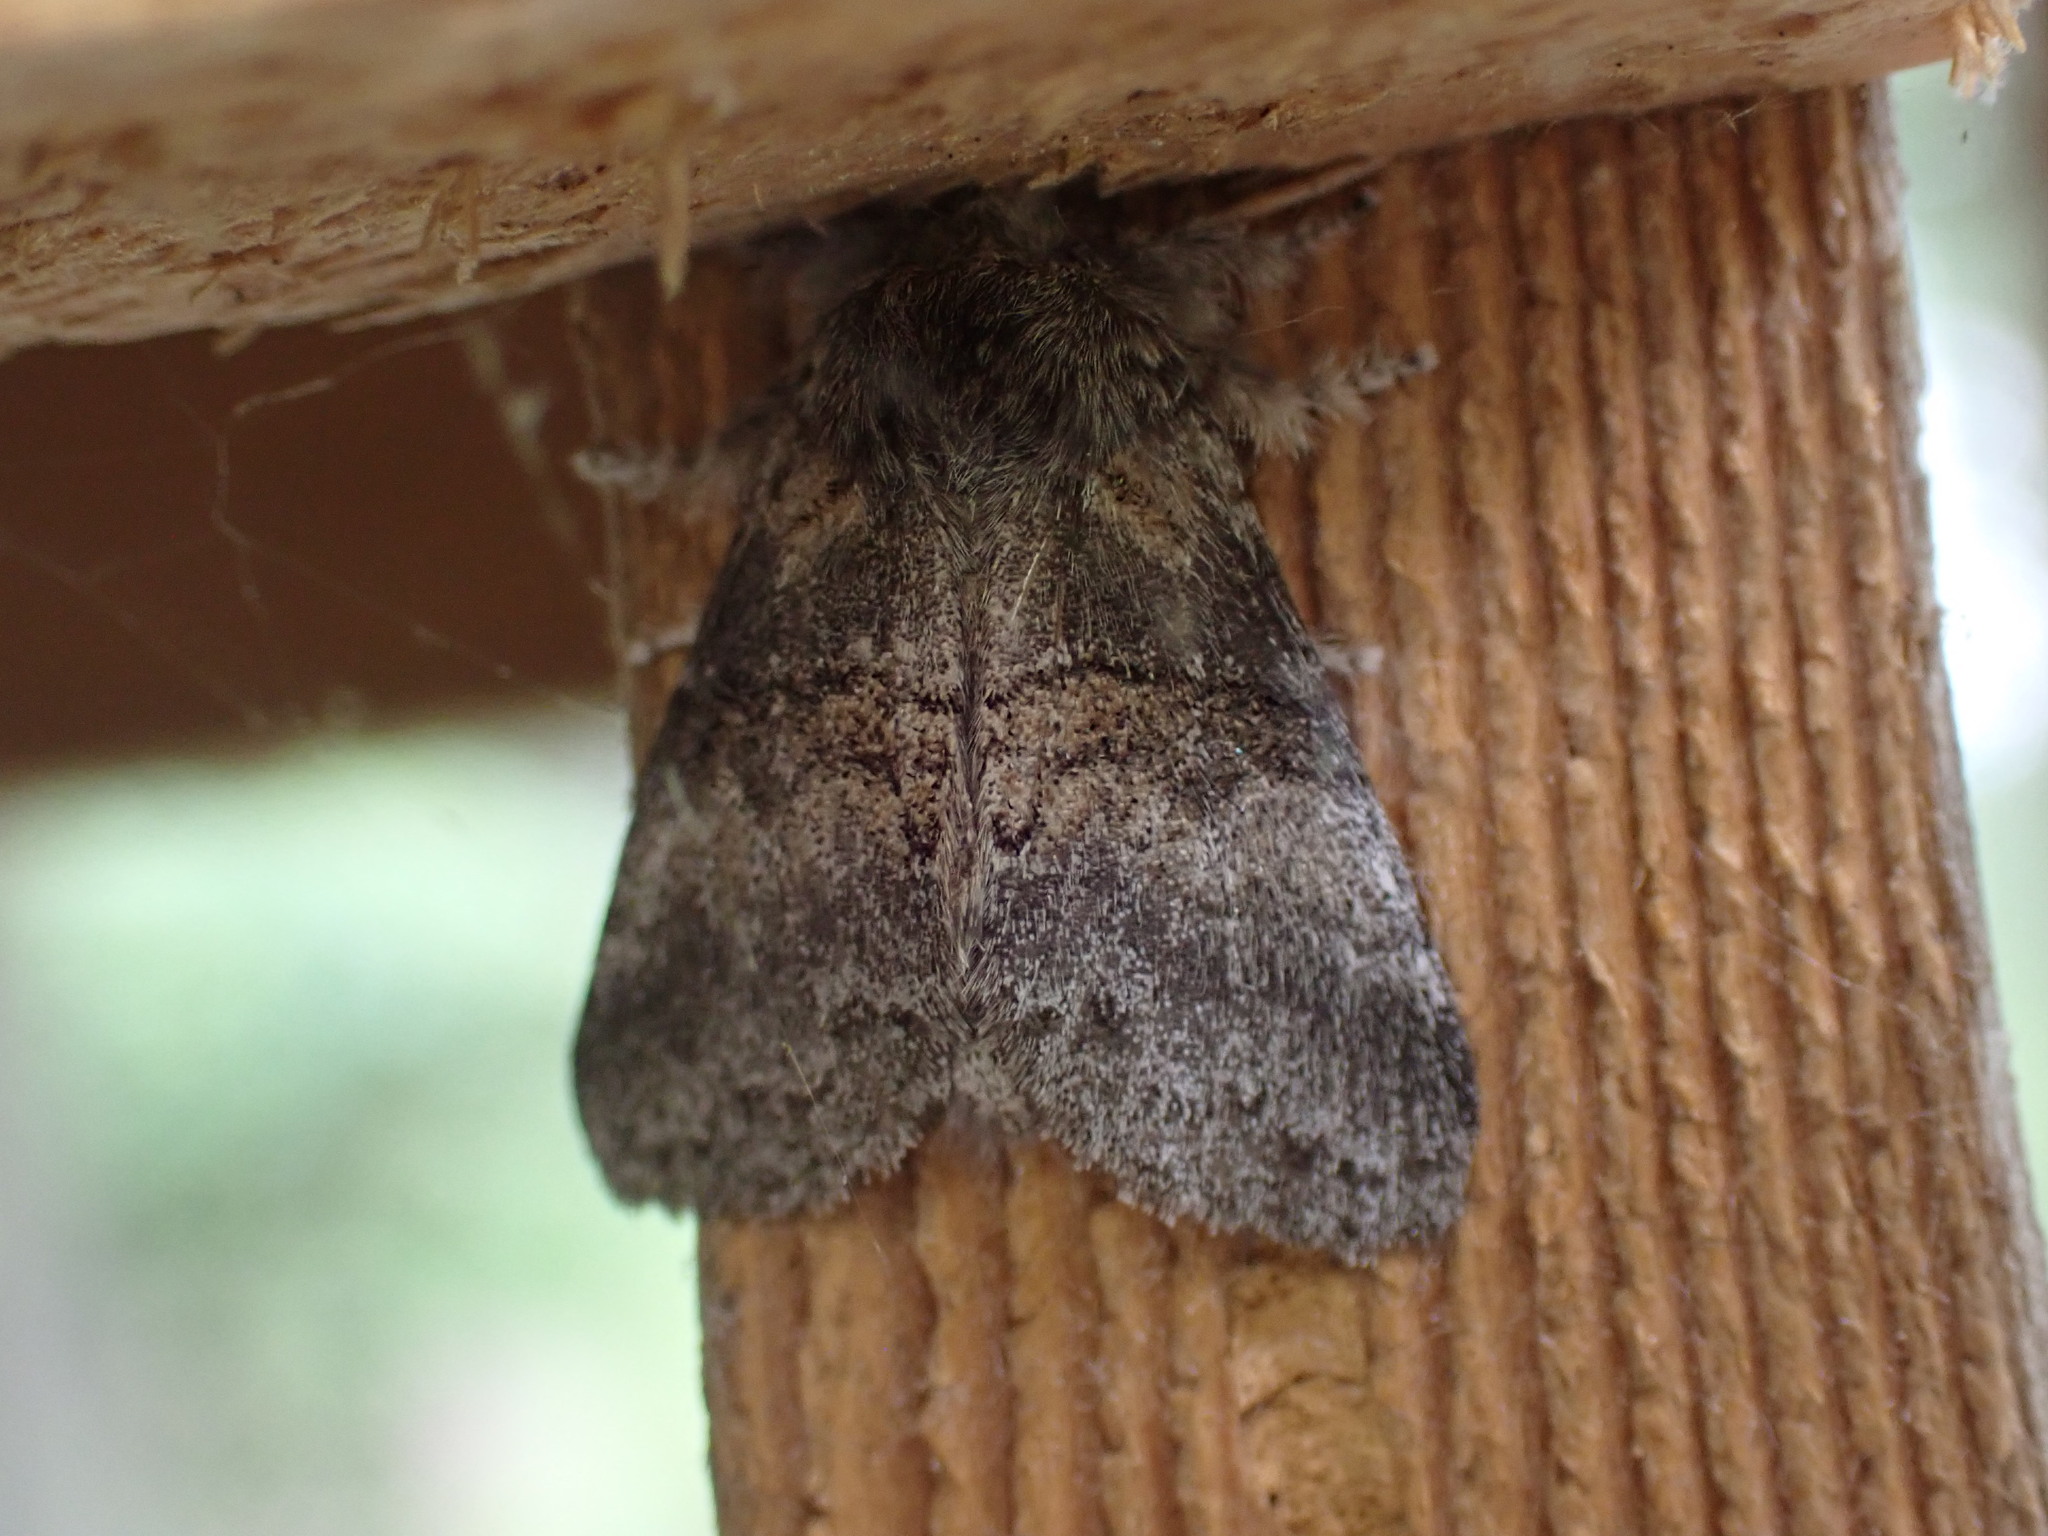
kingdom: Animalia
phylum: Arthropoda
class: Insecta
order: Lepidoptera
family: Notodontidae
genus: Gluphisia
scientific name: Gluphisia septentrionis
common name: Common gluphisia
